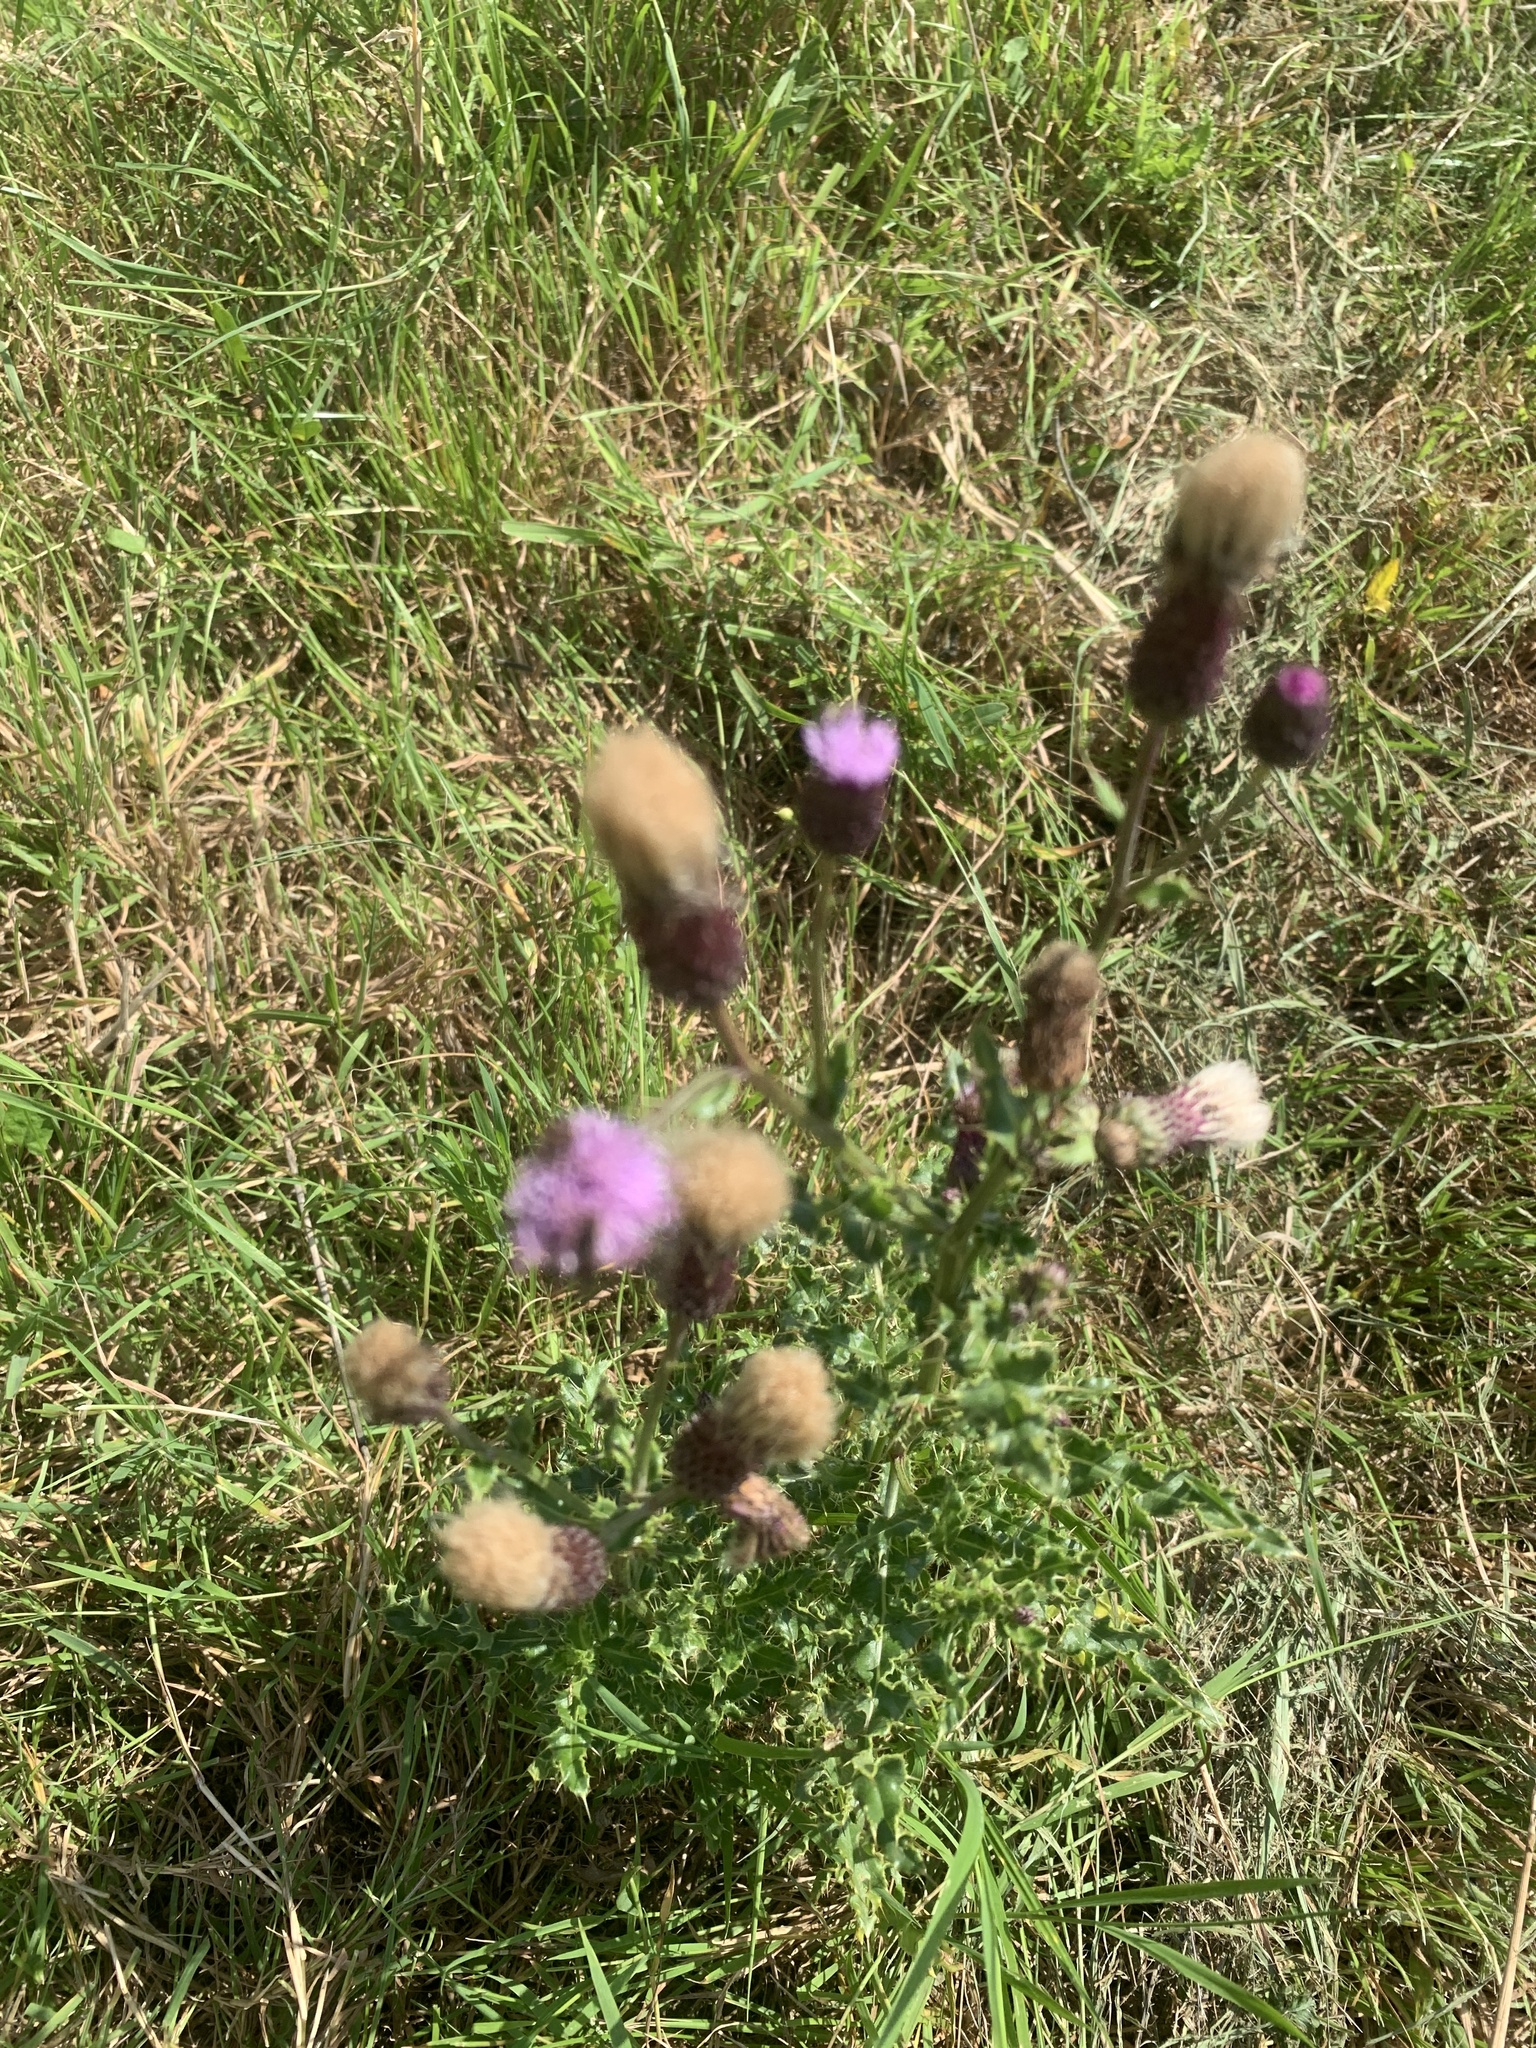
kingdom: Plantae
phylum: Tracheophyta
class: Magnoliopsida
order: Asterales
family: Asteraceae
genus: Cirsium
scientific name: Cirsium arvense
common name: Creeping thistle
